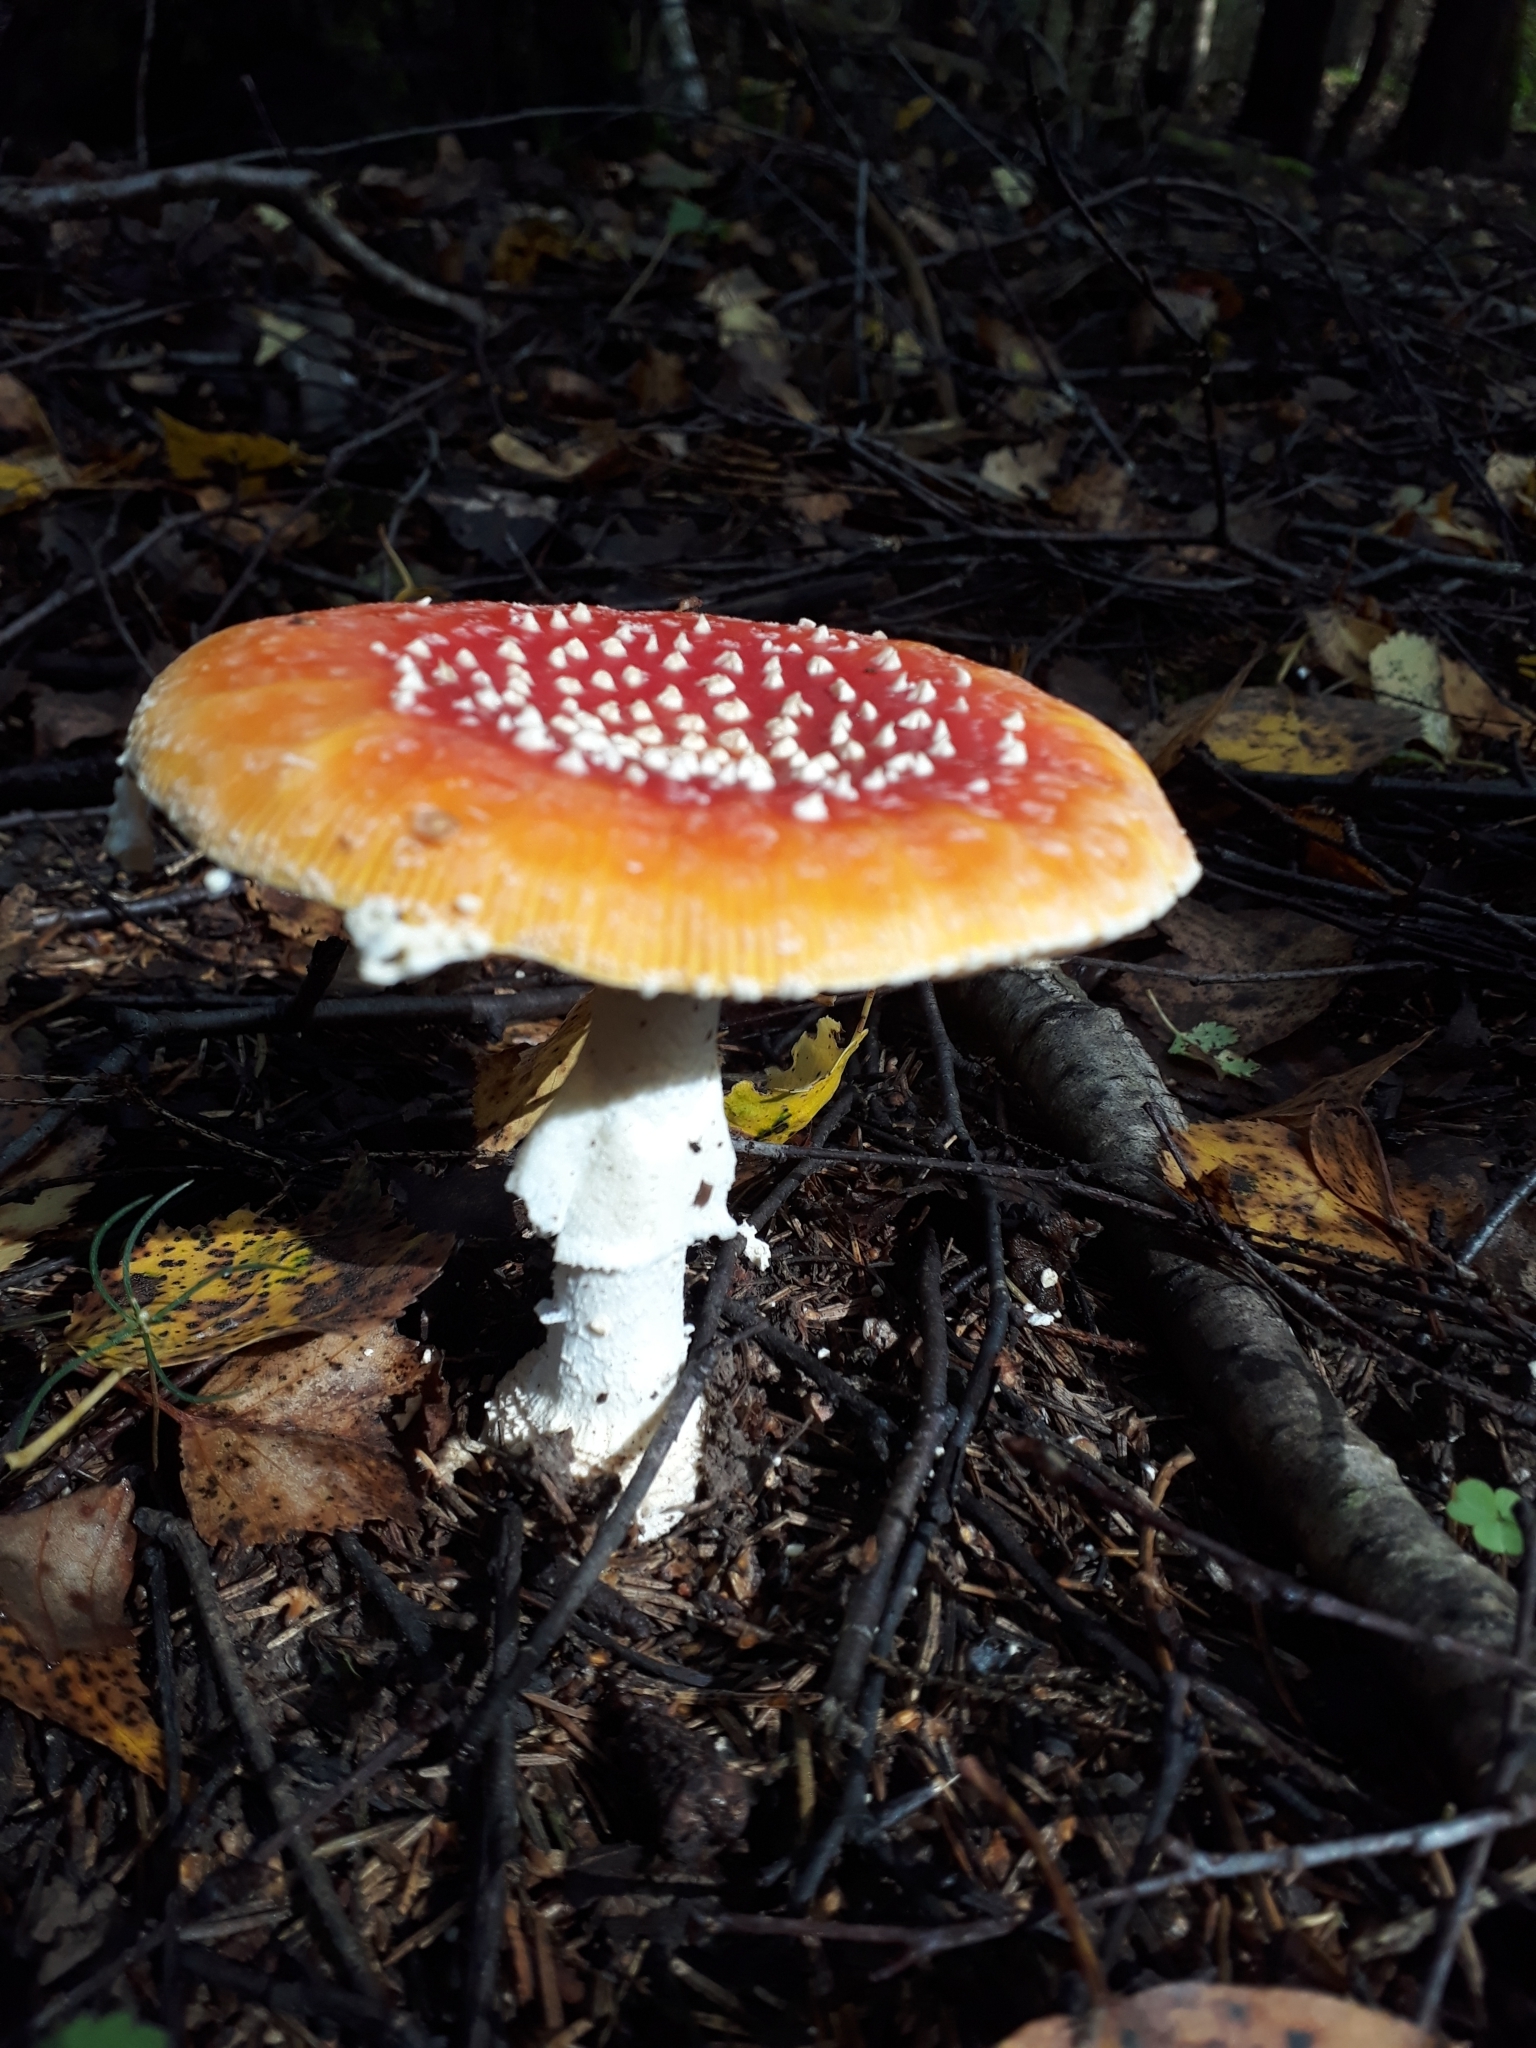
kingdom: Fungi
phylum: Basidiomycota
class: Agaricomycetes
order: Agaricales
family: Amanitaceae
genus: Amanita
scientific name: Amanita muscaria
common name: Fly agaric
